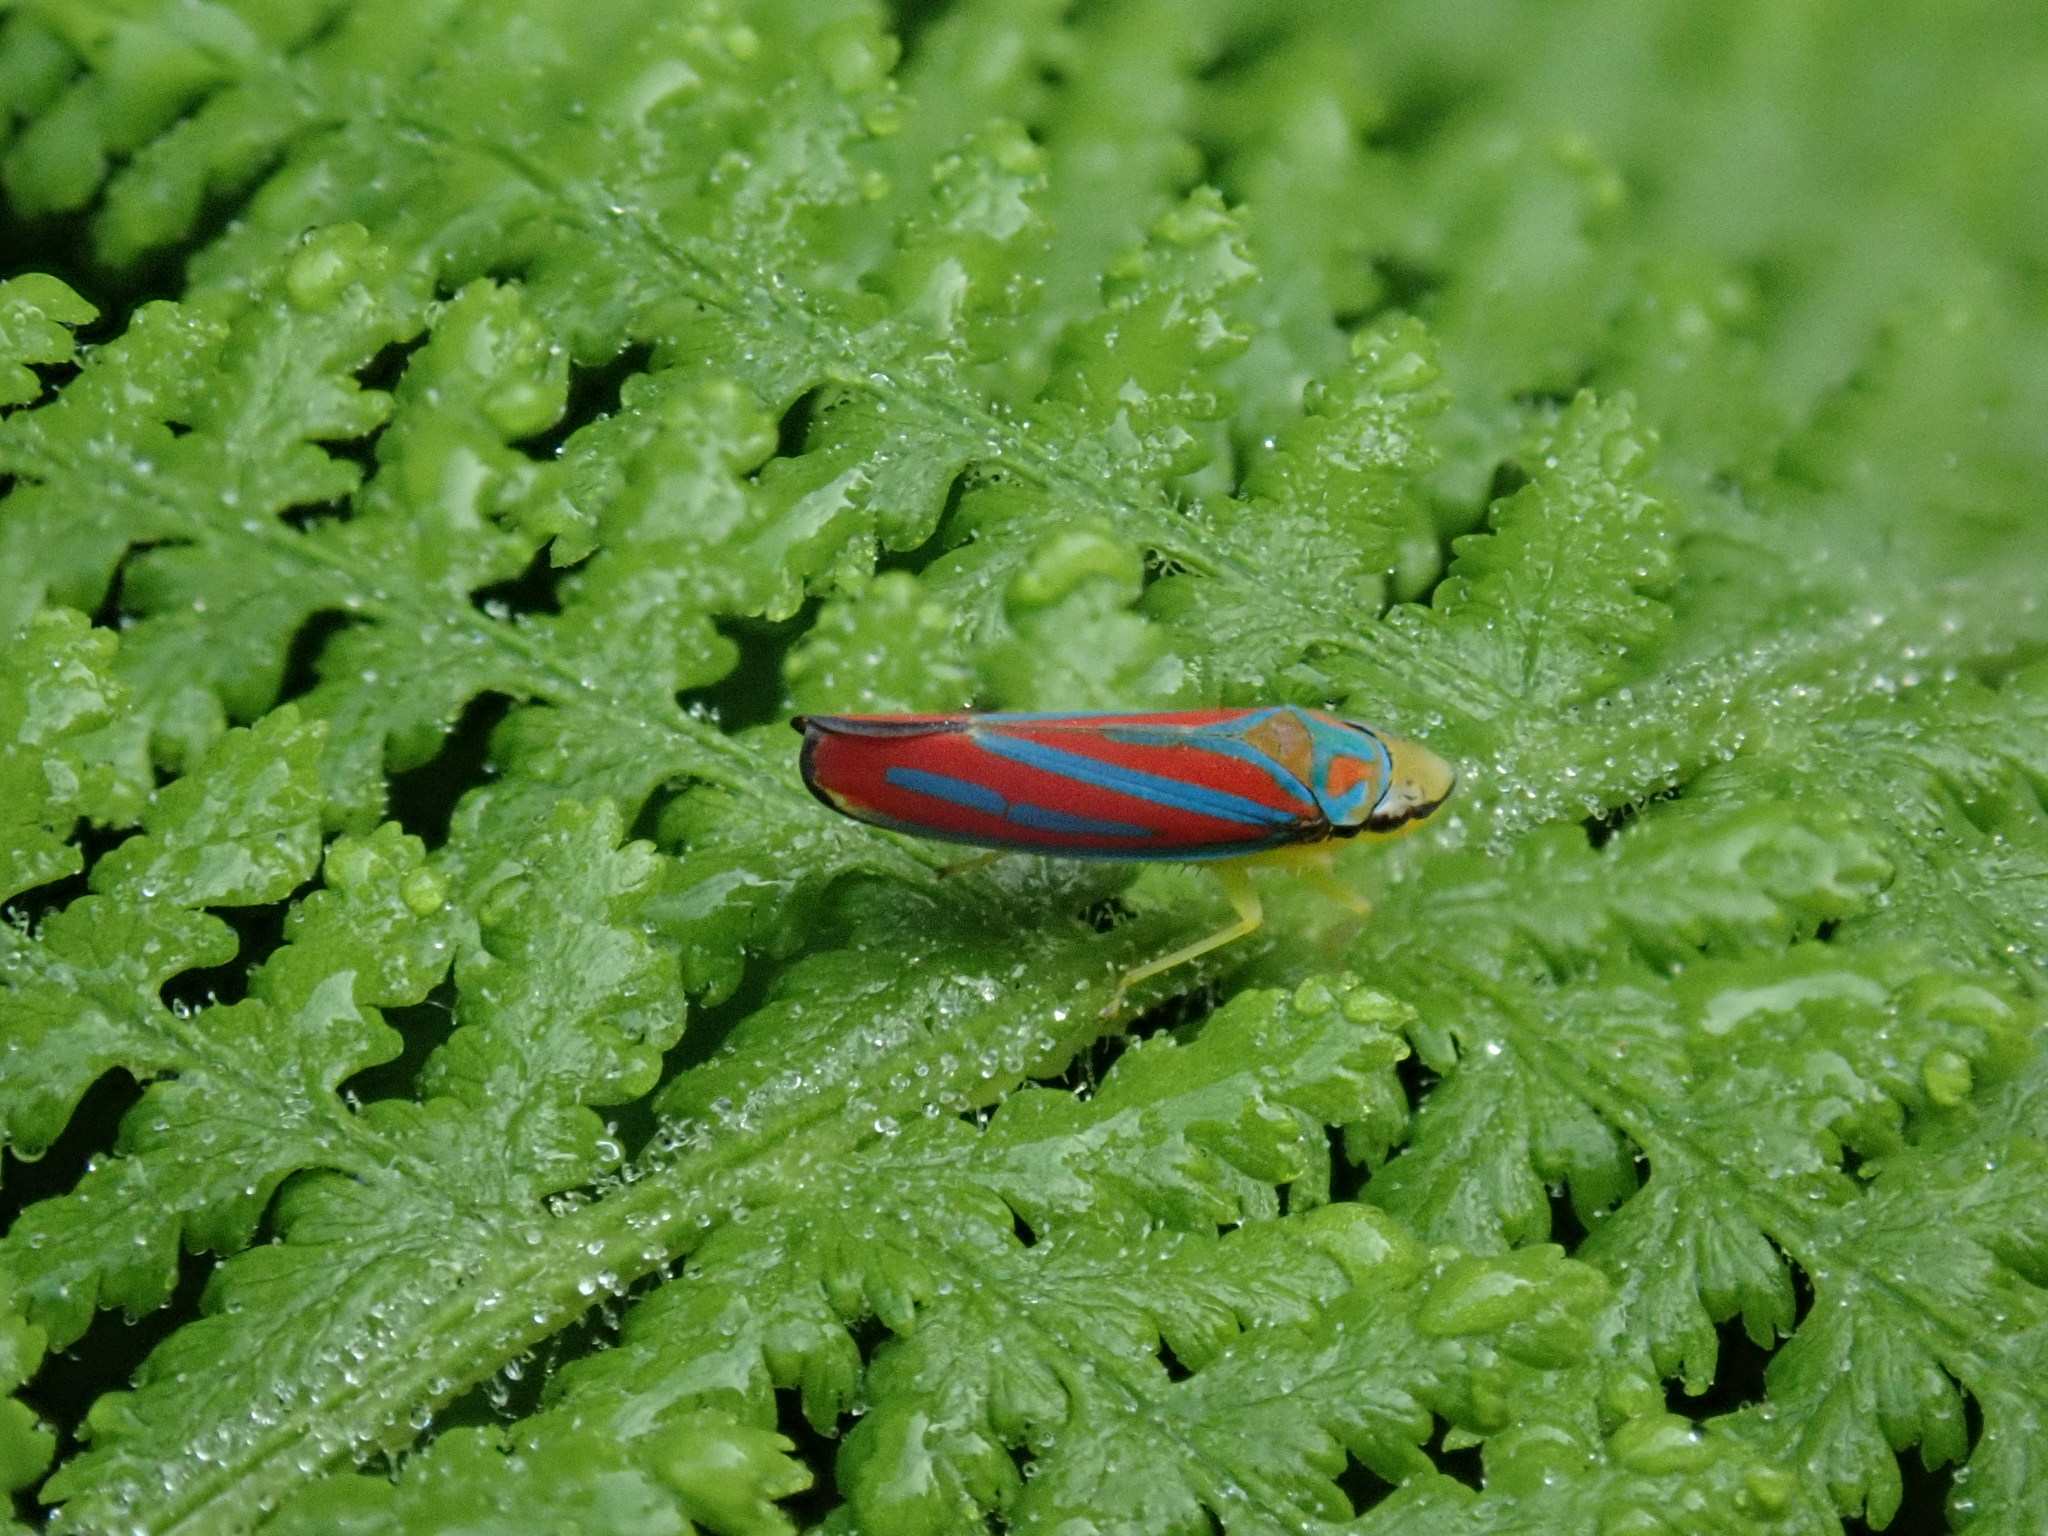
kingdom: Animalia
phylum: Arthropoda
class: Insecta
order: Hemiptera
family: Cicadellidae
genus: Graphocephala
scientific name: Graphocephala coccinea
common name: Candy-striped leafhopper
